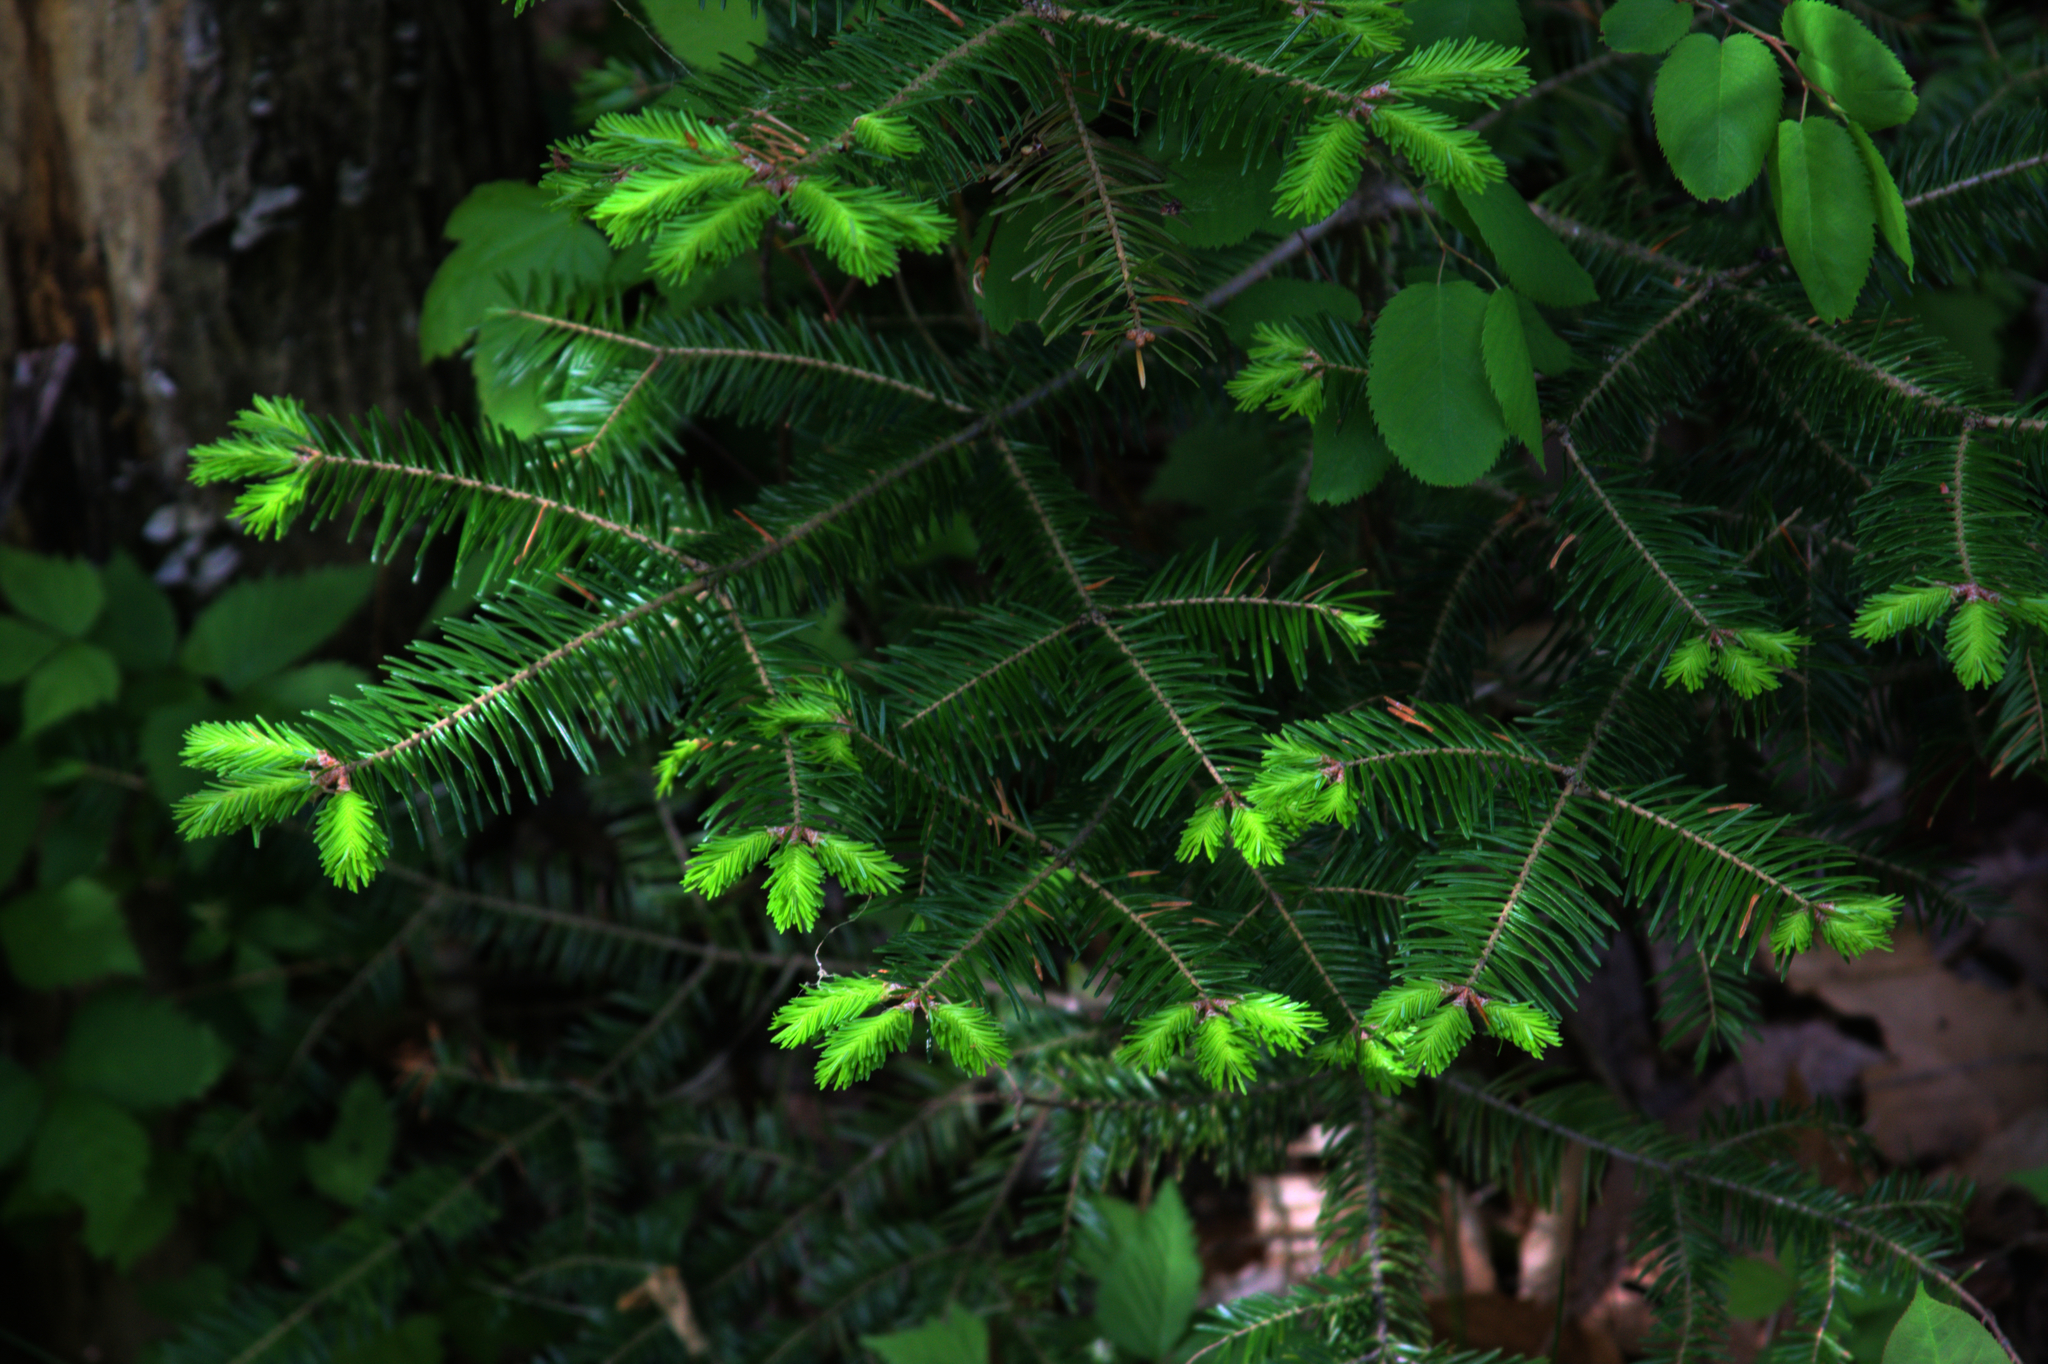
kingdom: Plantae
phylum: Tracheophyta
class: Pinopsida
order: Pinales
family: Pinaceae
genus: Abies
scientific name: Abies balsamea
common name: Balsam fir
